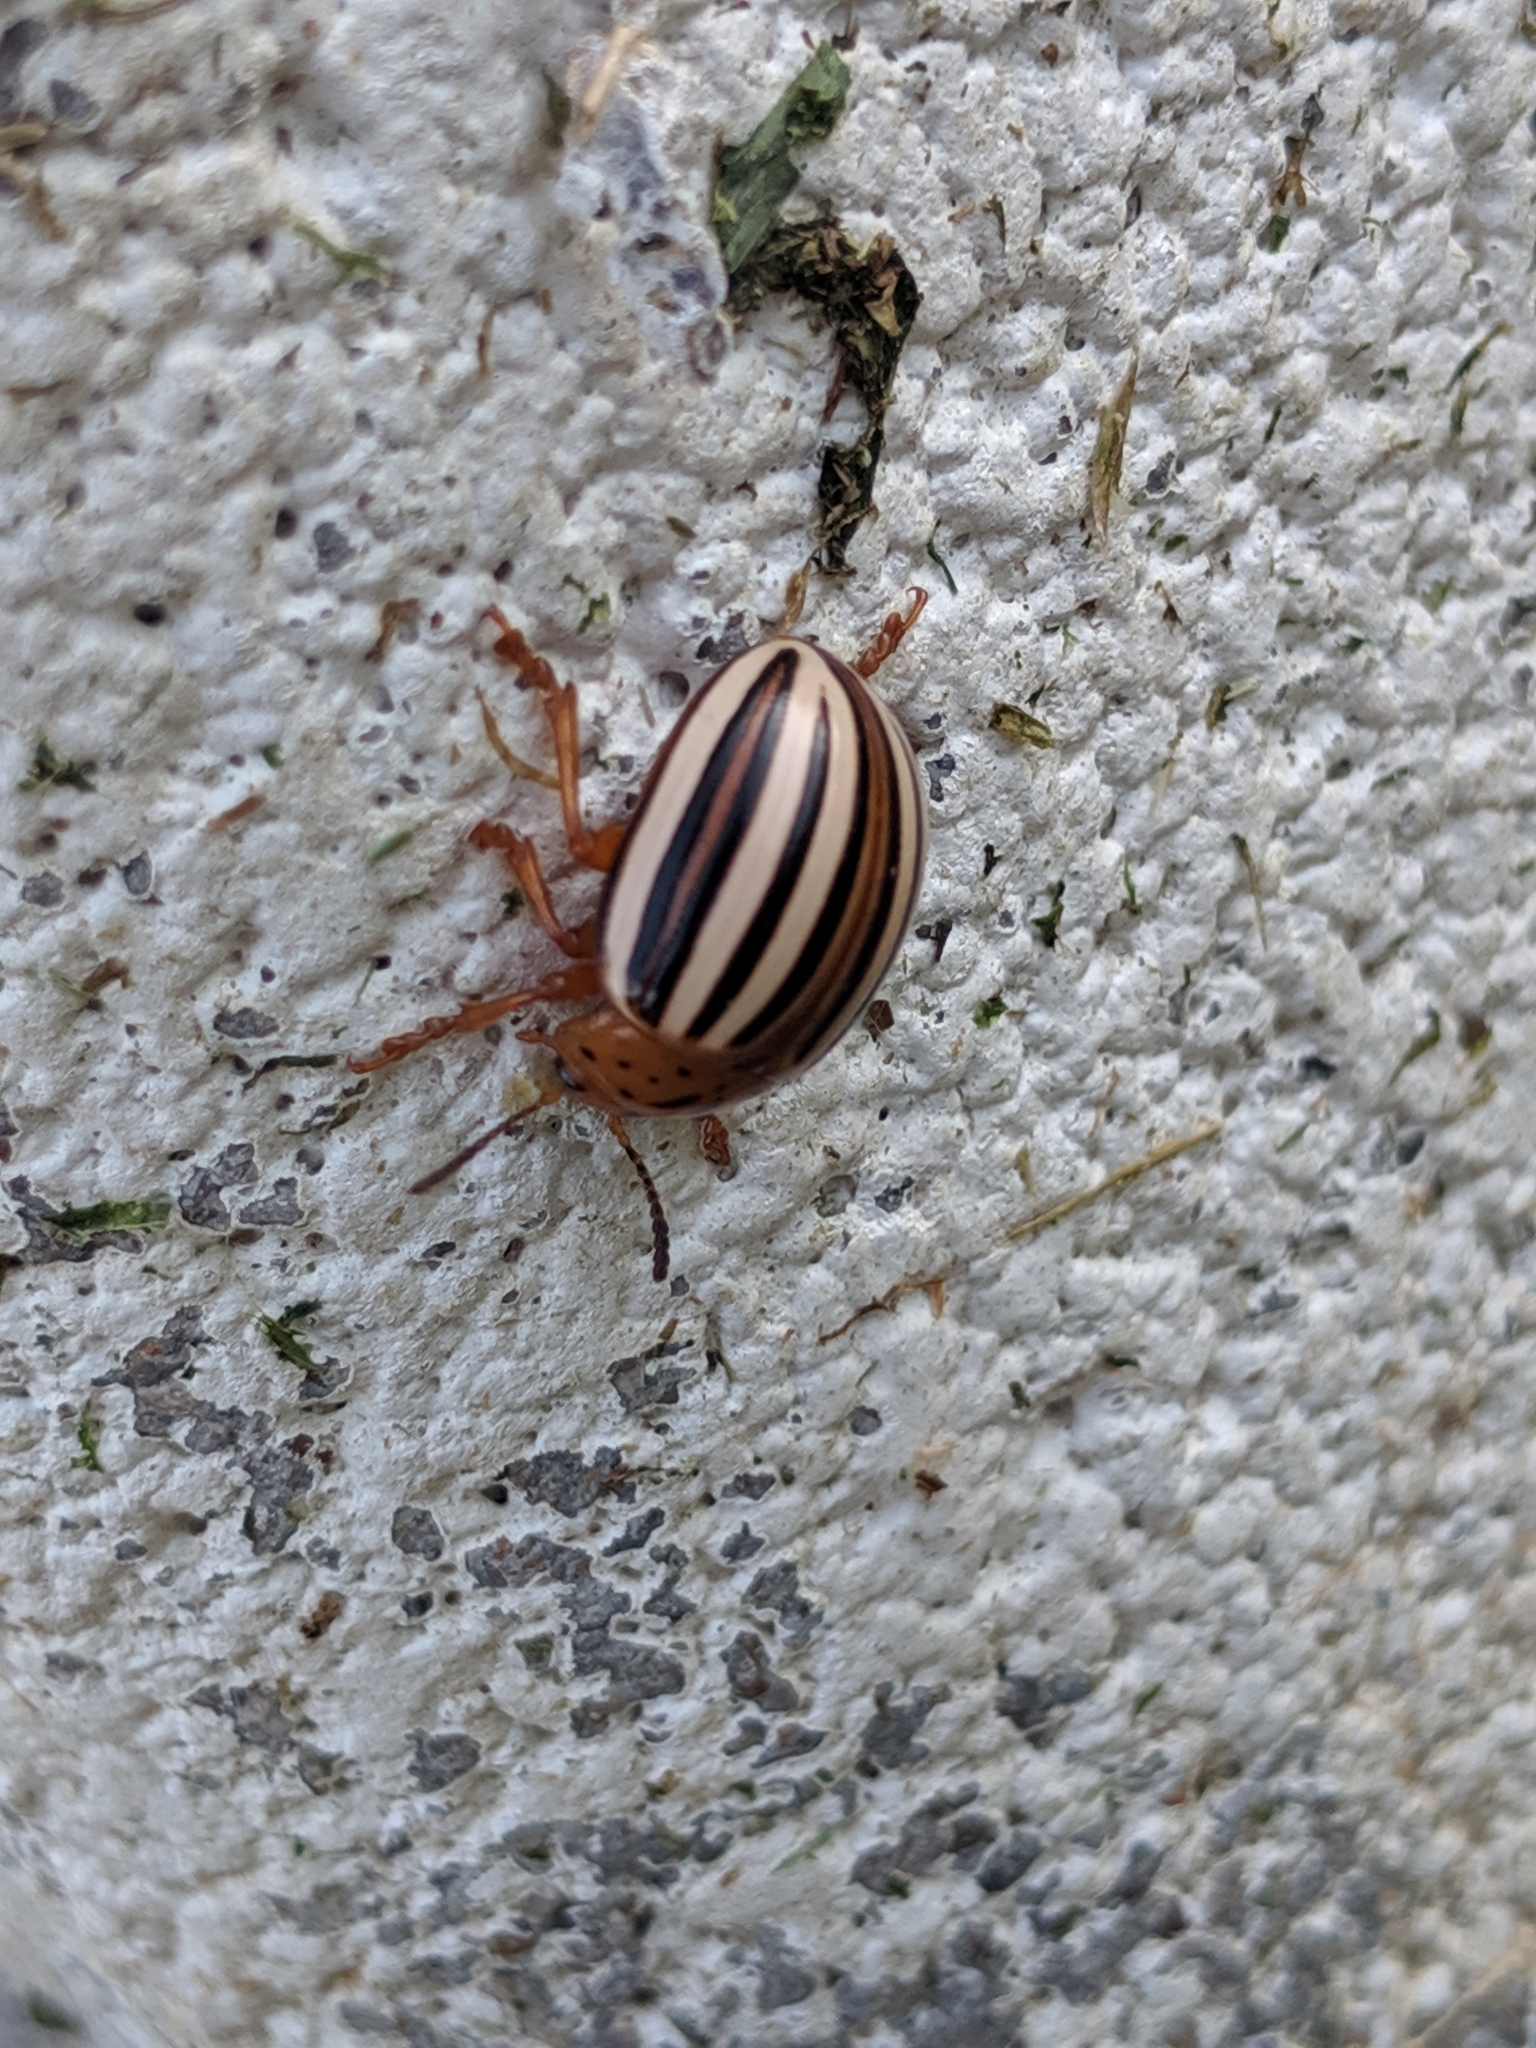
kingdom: Animalia
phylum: Arthropoda
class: Insecta
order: Coleoptera
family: Chrysomelidae
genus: Leptinotarsa
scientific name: Leptinotarsa juncta
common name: False potato beetle
